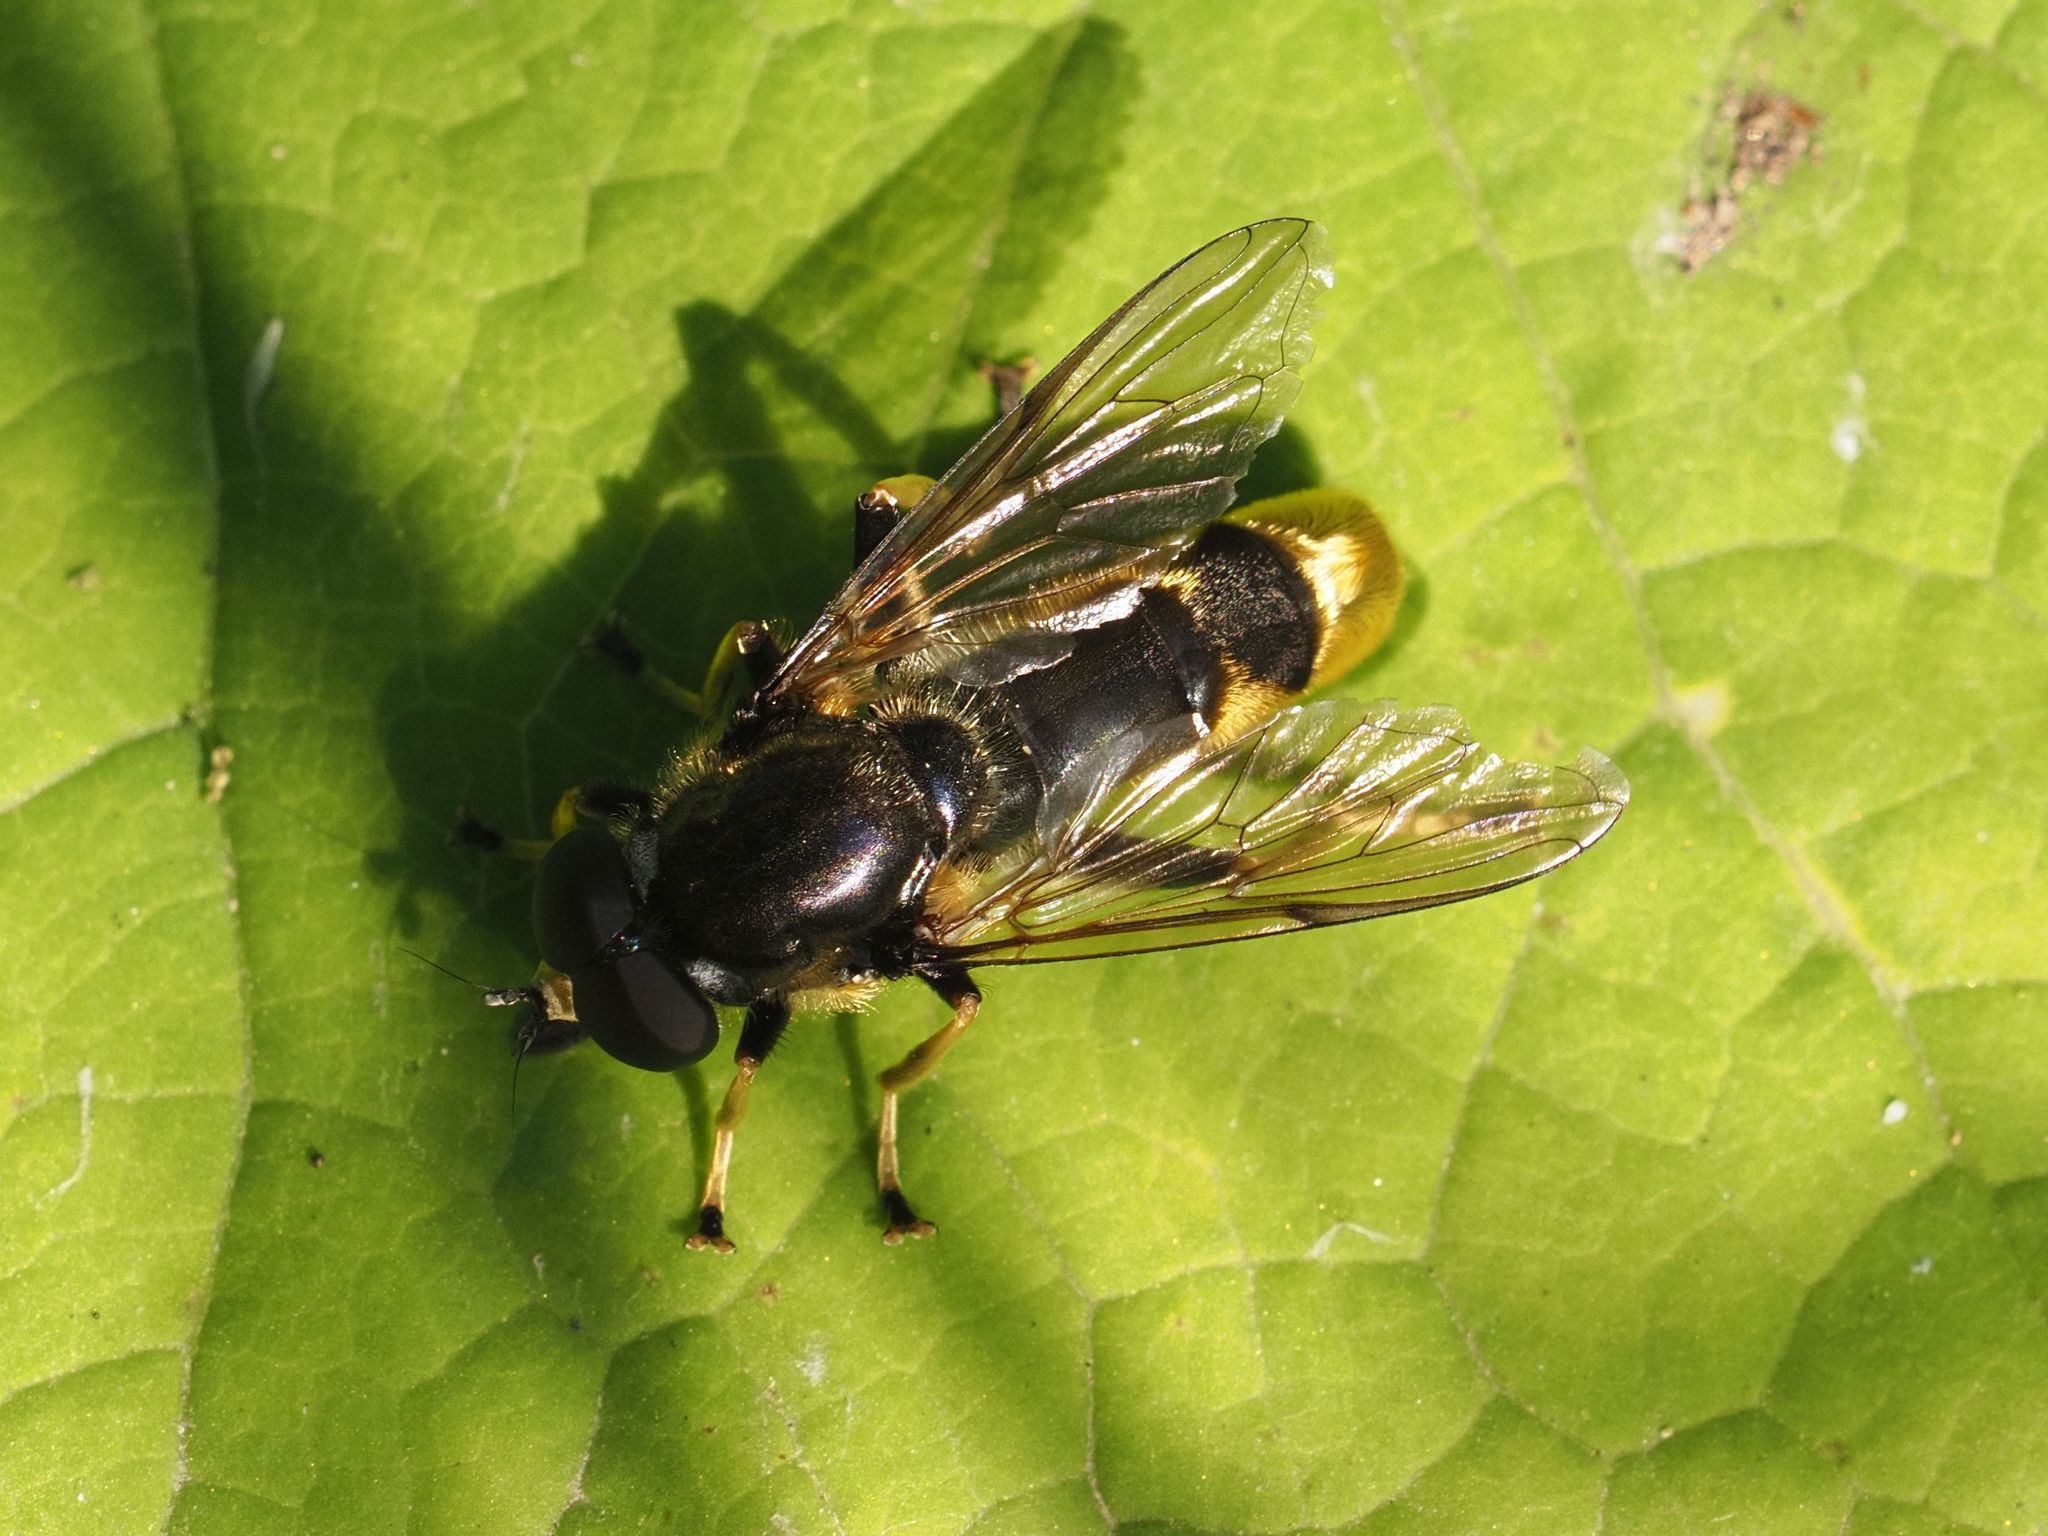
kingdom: Animalia
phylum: Arthropoda
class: Insecta
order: Diptera
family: Syrphidae
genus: Xylota
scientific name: Xylota sylvarum
